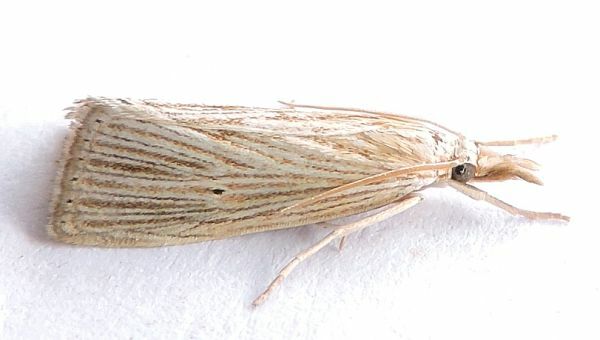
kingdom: Animalia
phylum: Arthropoda
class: Insecta
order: Lepidoptera
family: Crambidae
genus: Xubida
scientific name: Xubida panalope
